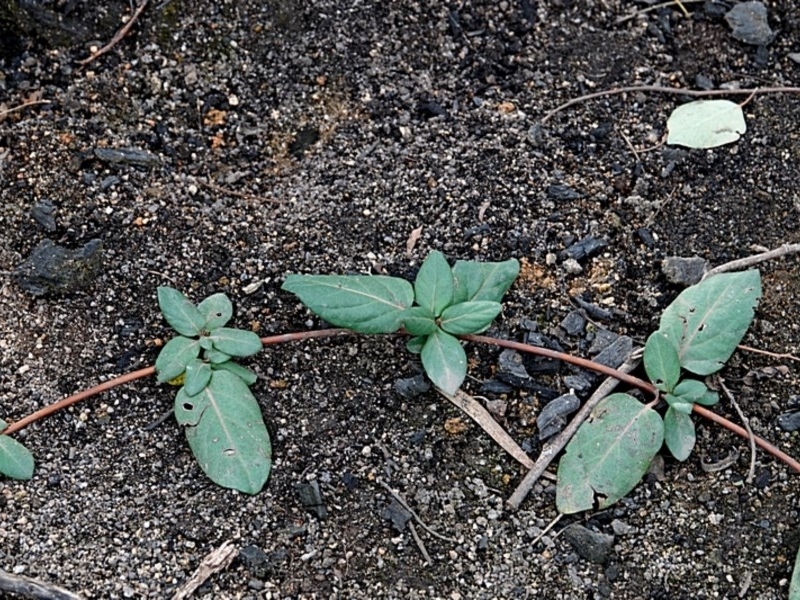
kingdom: Plantae
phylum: Tracheophyta
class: Magnoliopsida
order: Dipsacales
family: Caprifoliaceae
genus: Lonicera
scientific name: Lonicera japonica
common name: Japanese honeysuckle
